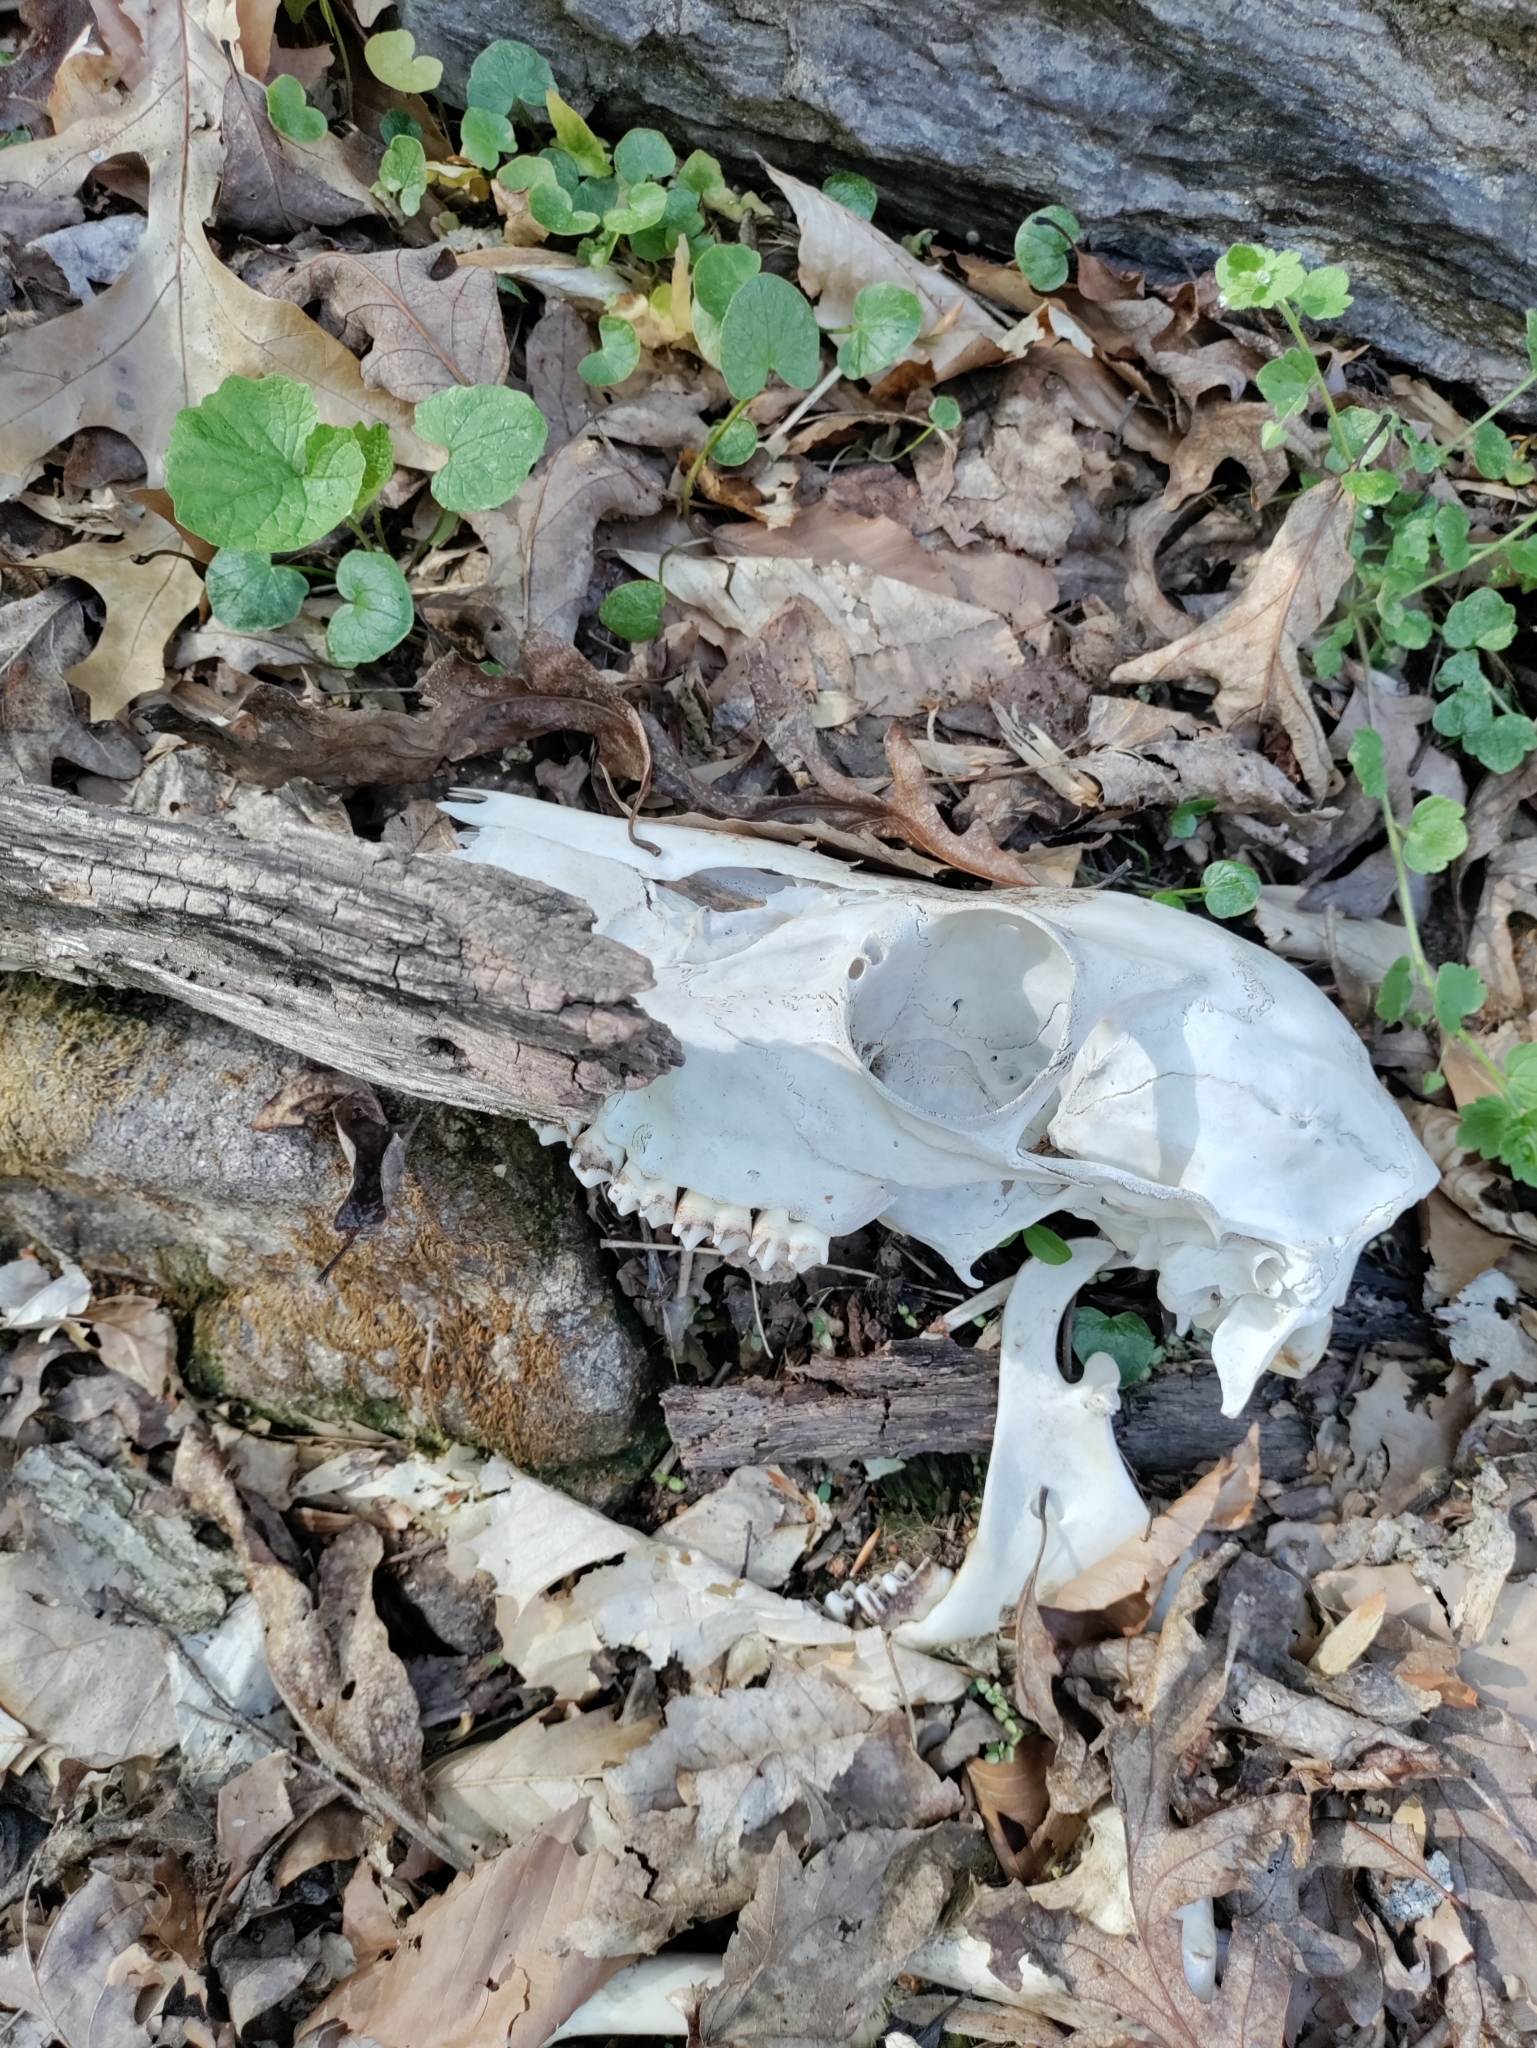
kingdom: Animalia
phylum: Chordata
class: Mammalia
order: Artiodactyla
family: Cervidae
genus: Odocoileus
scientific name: Odocoileus virginianus
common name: White-tailed deer
